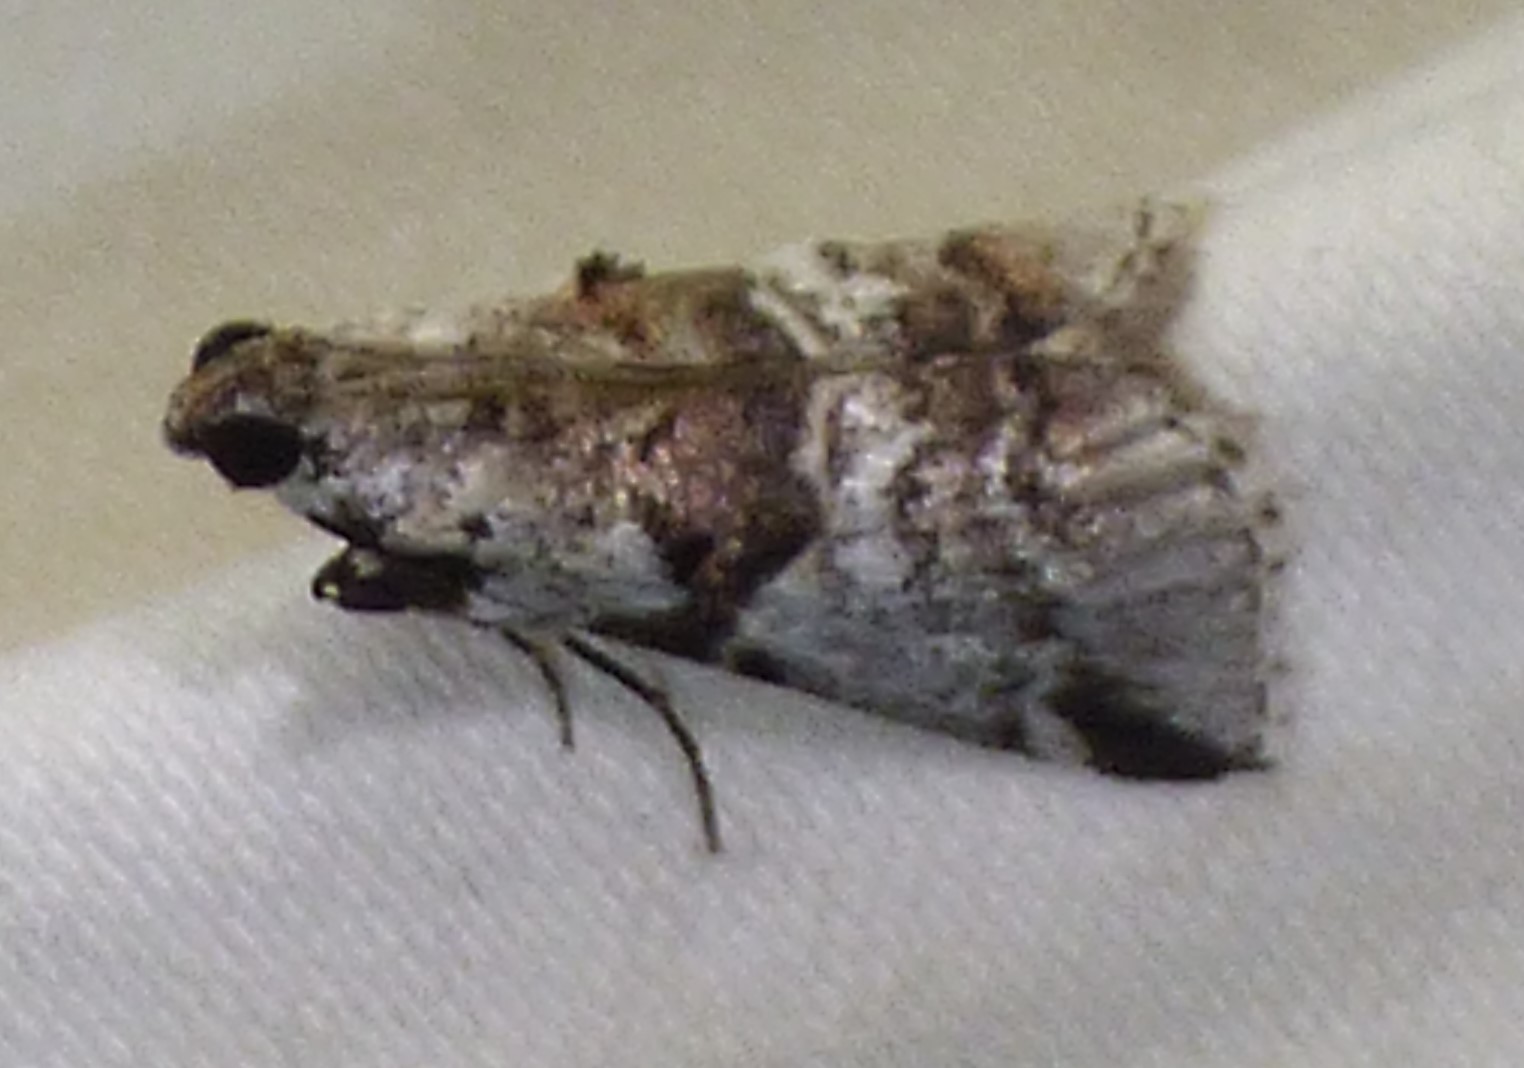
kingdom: Animalia
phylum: Arthropoda
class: Insecta
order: Lepidoptera
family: Pyralidae
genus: Tallula
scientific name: Tallula atrifascialis
